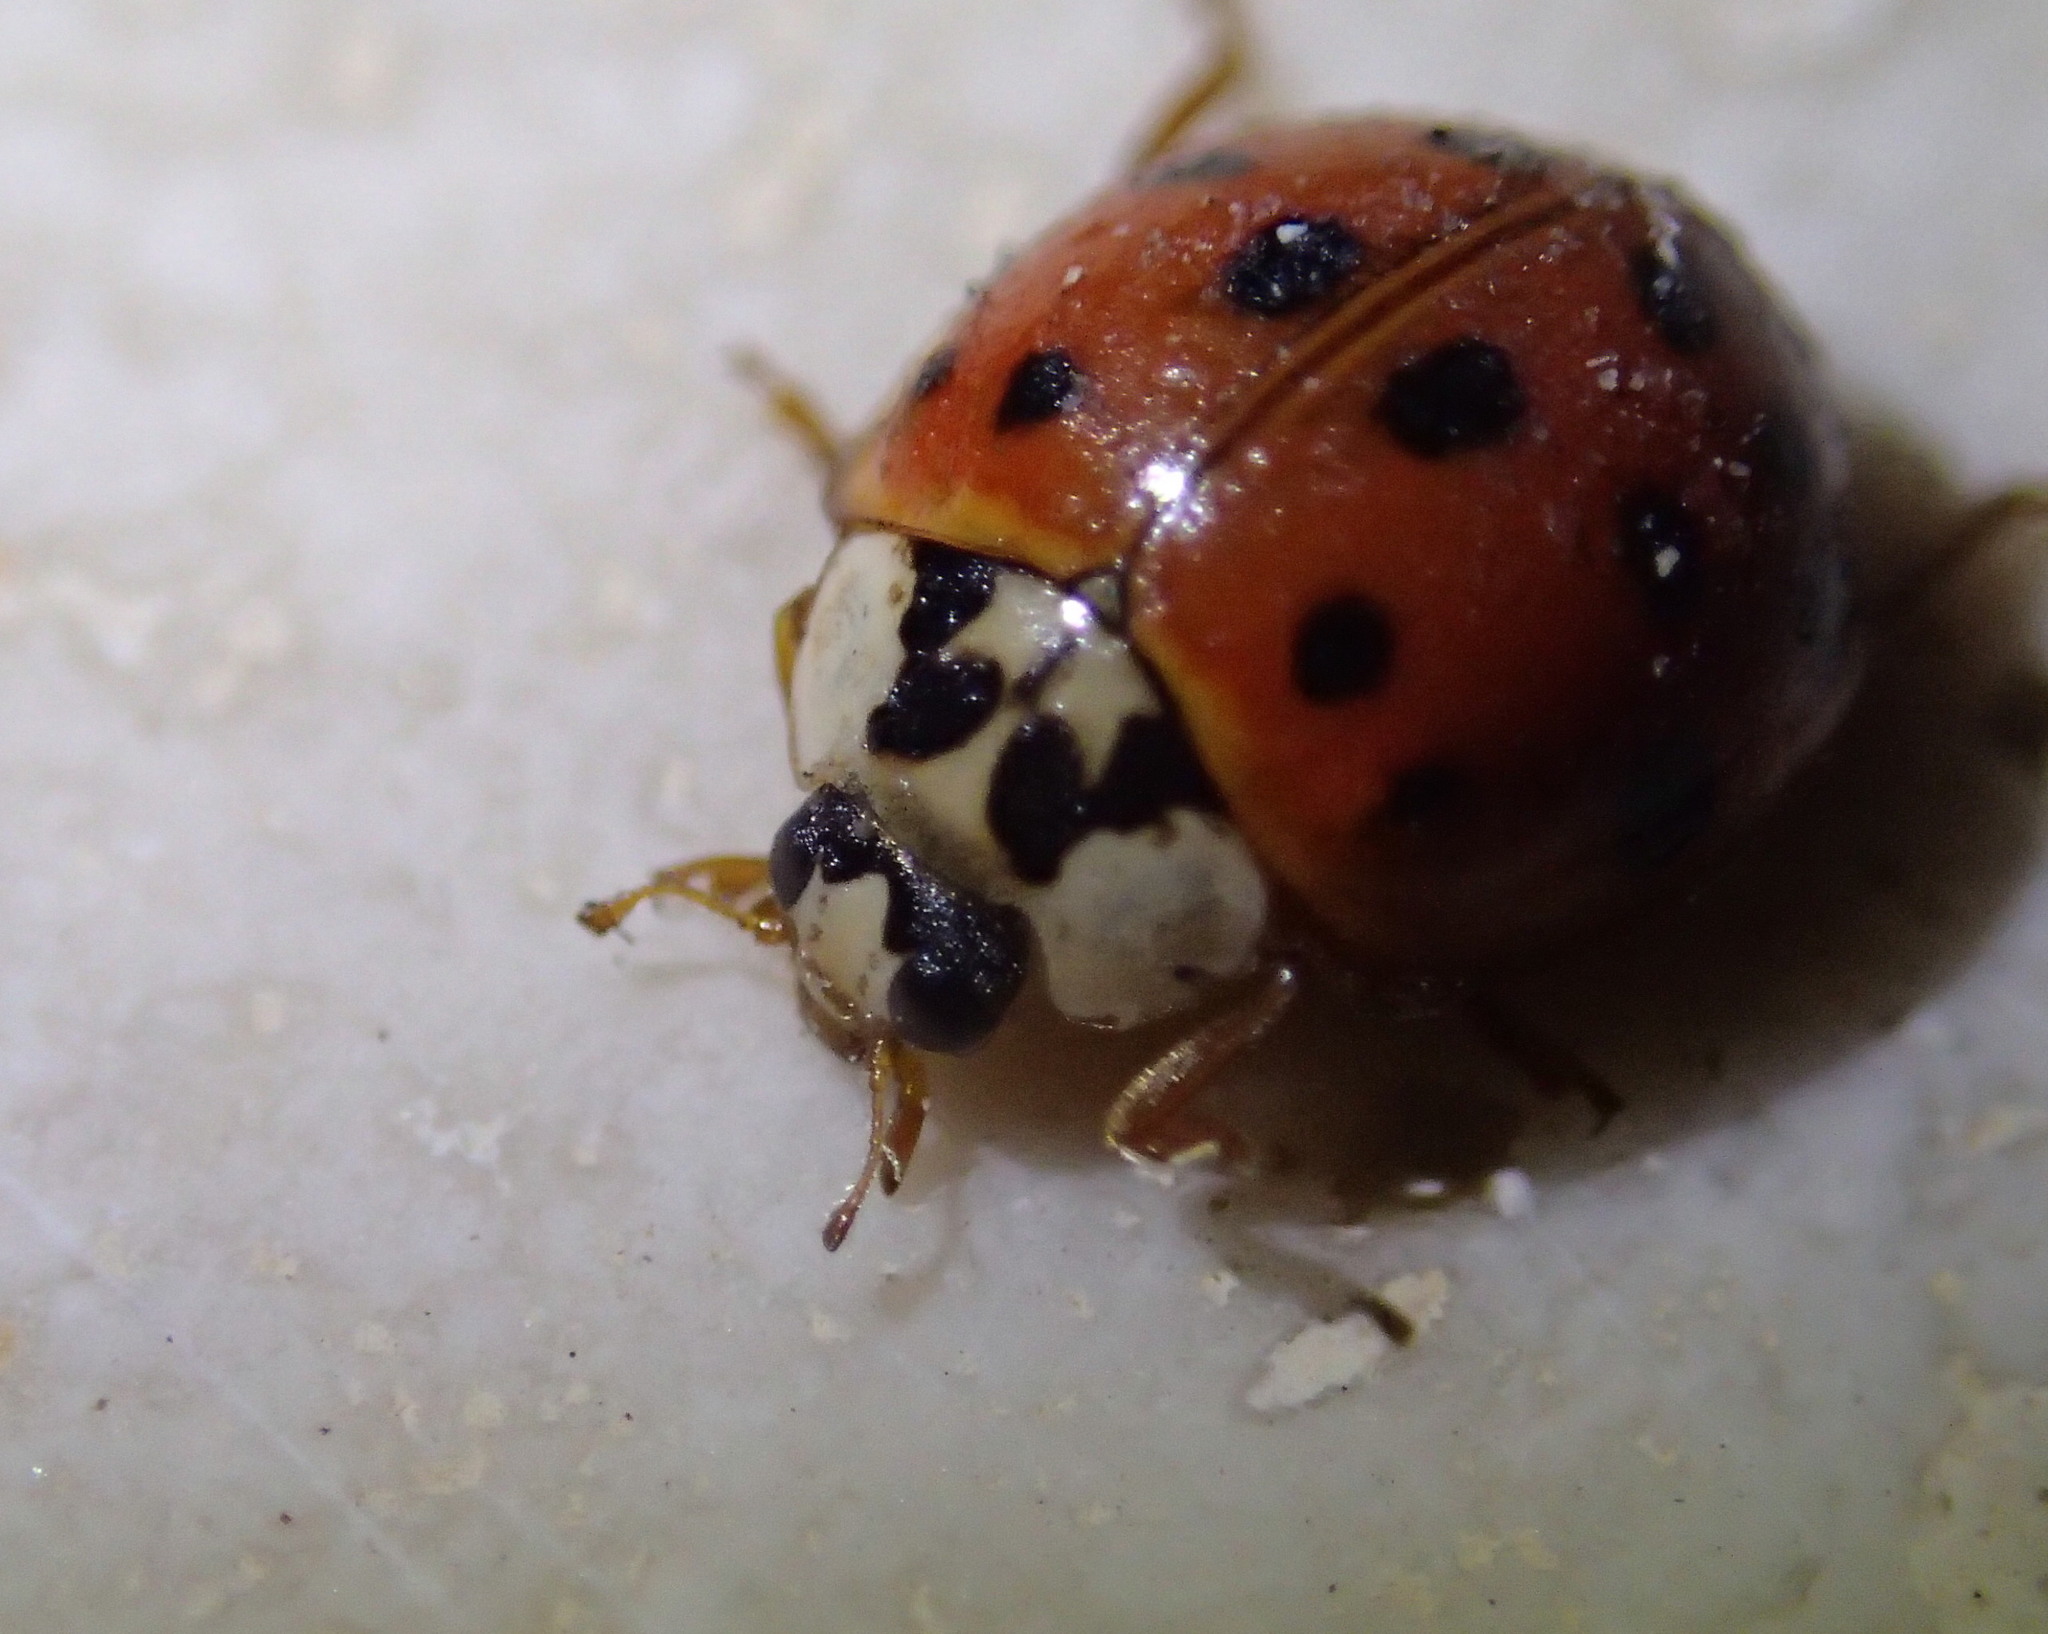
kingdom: Animalia
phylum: Arthropoda
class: Insecta
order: Coleoptera
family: Coccinellidae
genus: Harmonia
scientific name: Harmonia axyridis
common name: Harlequin ladybird
